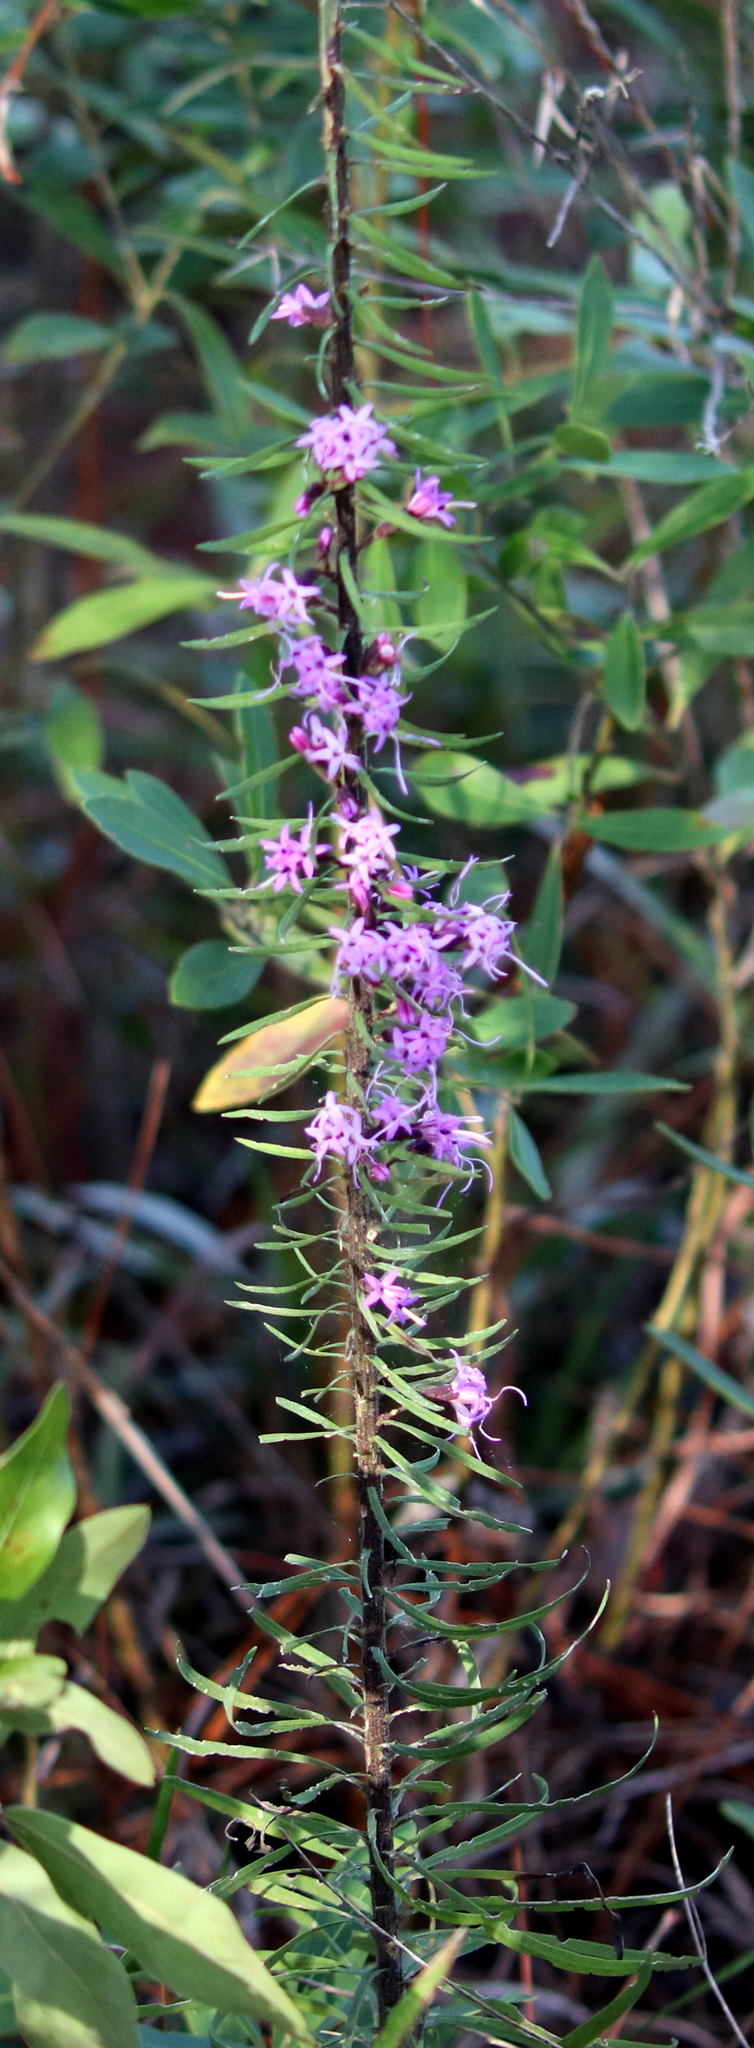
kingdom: Plantae
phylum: Tracheophyta
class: Magnoliopsida
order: Asterales
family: Asteraceae
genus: Liatris
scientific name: Liatris gracilis
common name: Slender gayfeather
